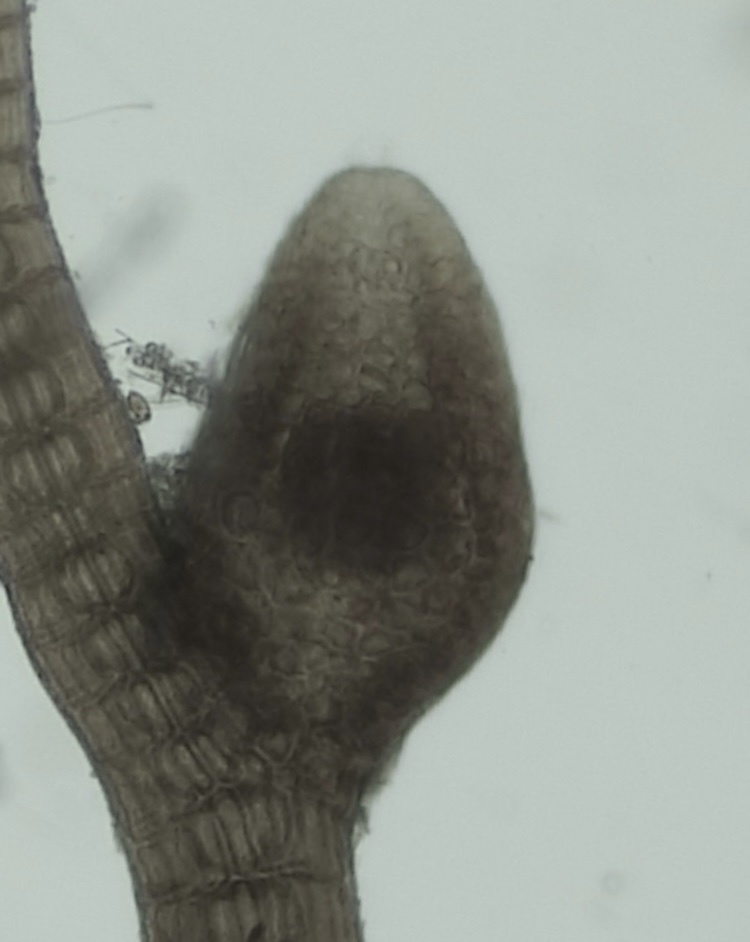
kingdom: Plantae
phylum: Rhodophyta
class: Florideophyceae
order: Ceramiales
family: Rhodomelaceae
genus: Vertebrata
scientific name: Vertebrata lanosa
